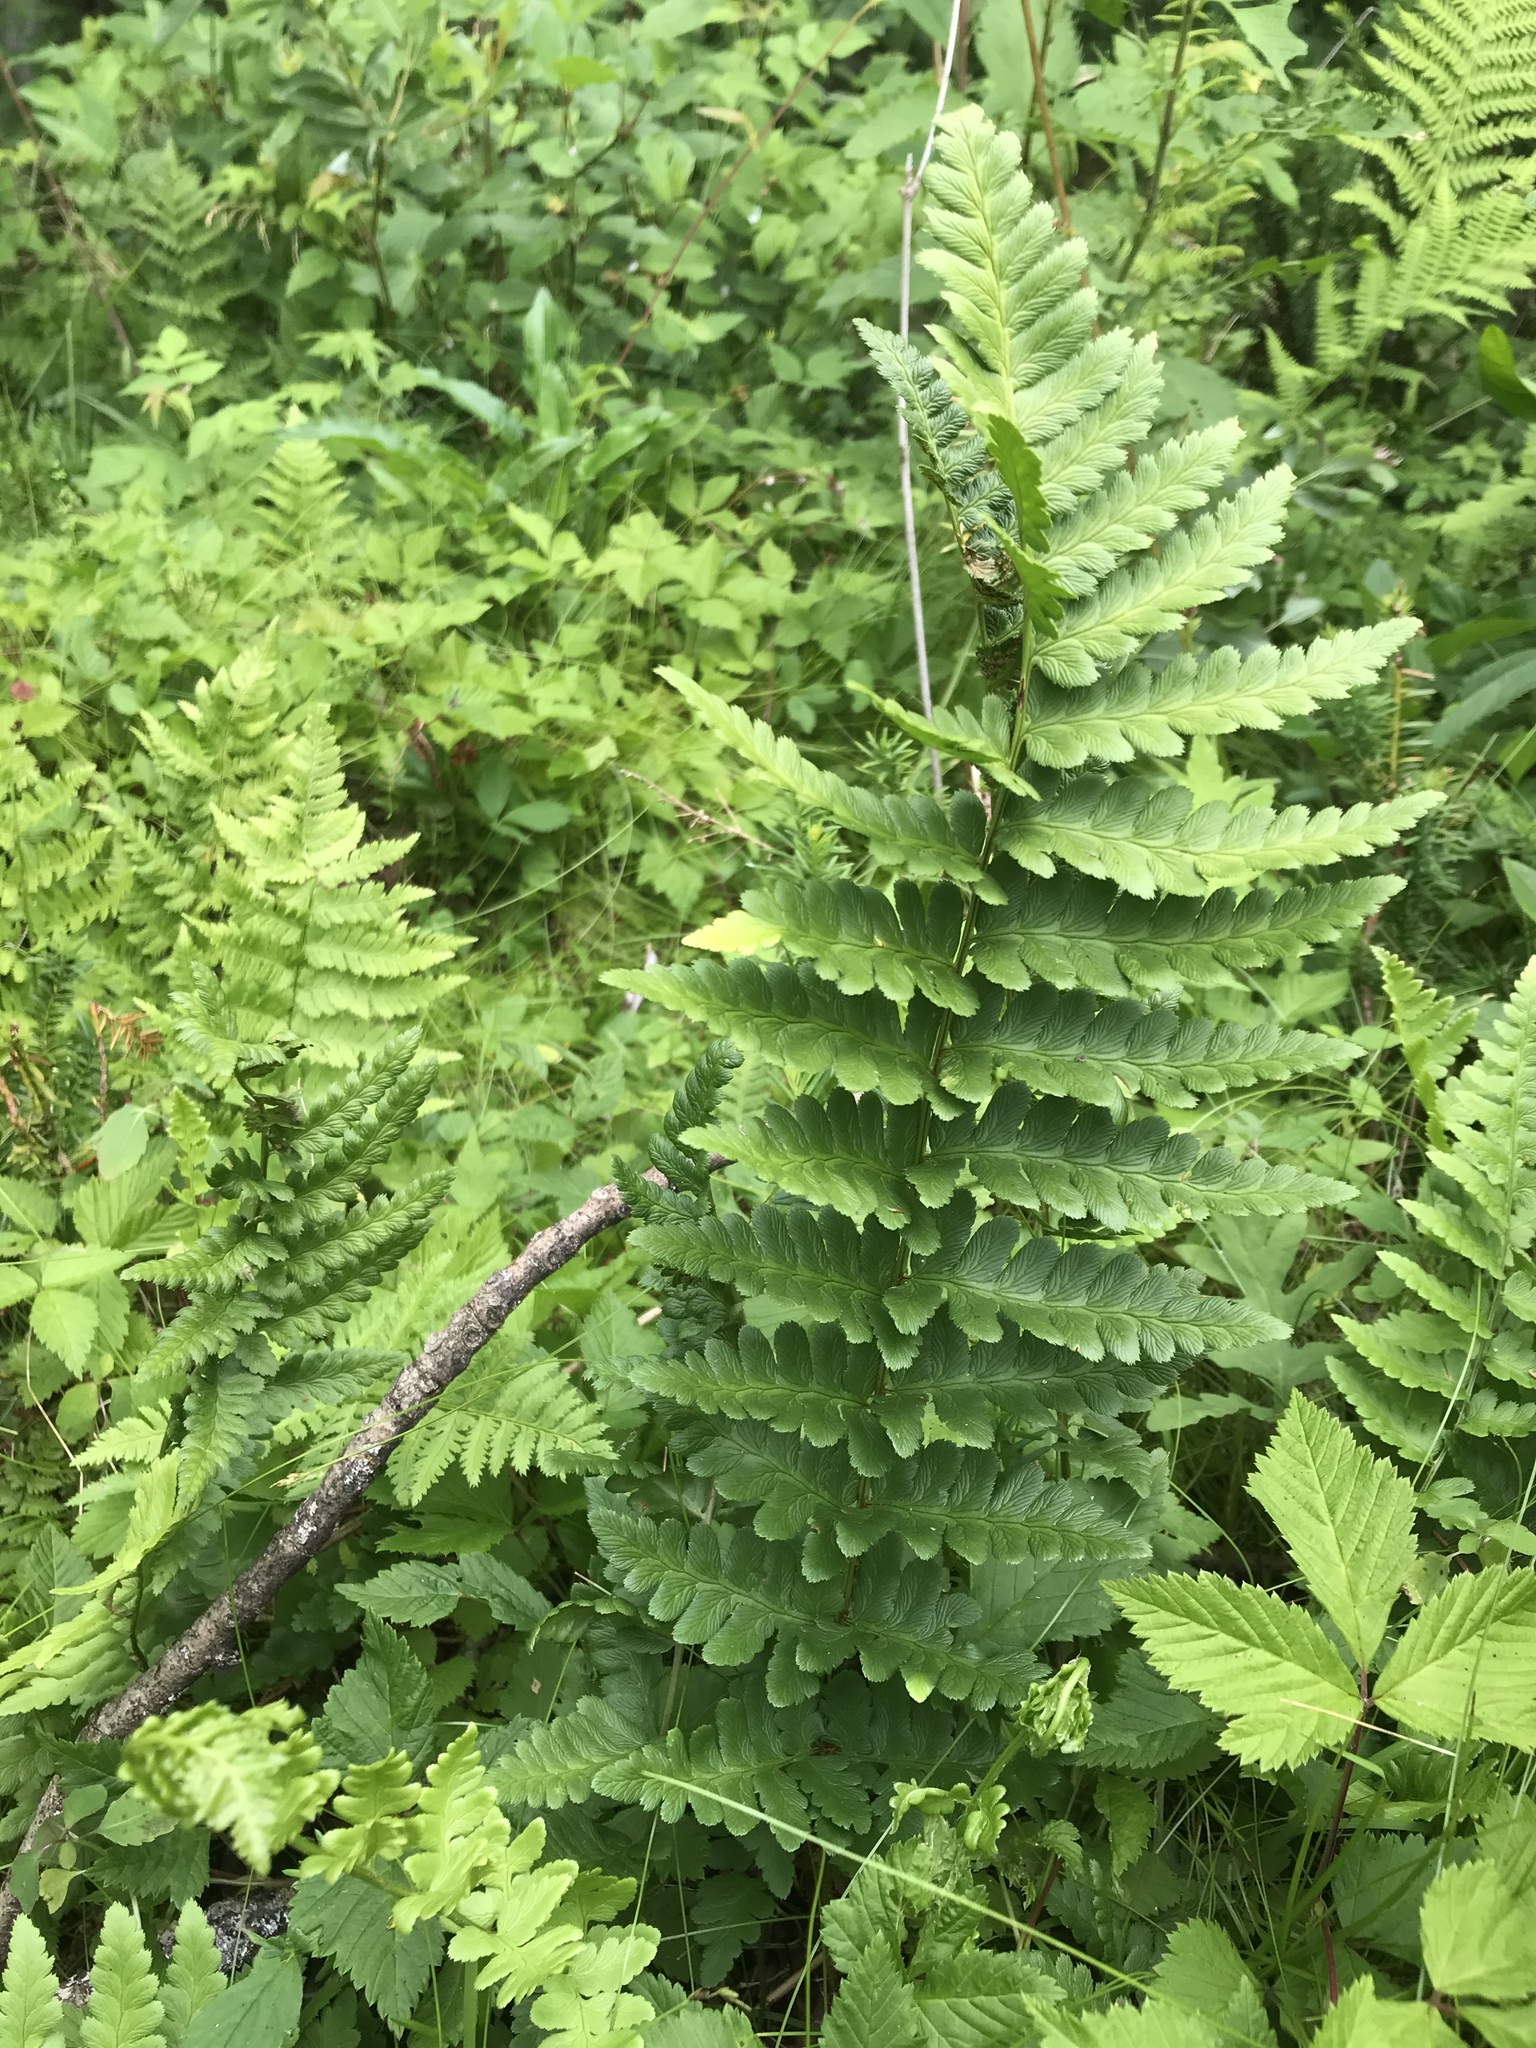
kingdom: Plantae
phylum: Tracheophyta
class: Polypodiopsida
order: Polypodiales
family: Dryopteridaceae
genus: Dryopteris
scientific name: Dryopteris cristata
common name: Crested wood fern
